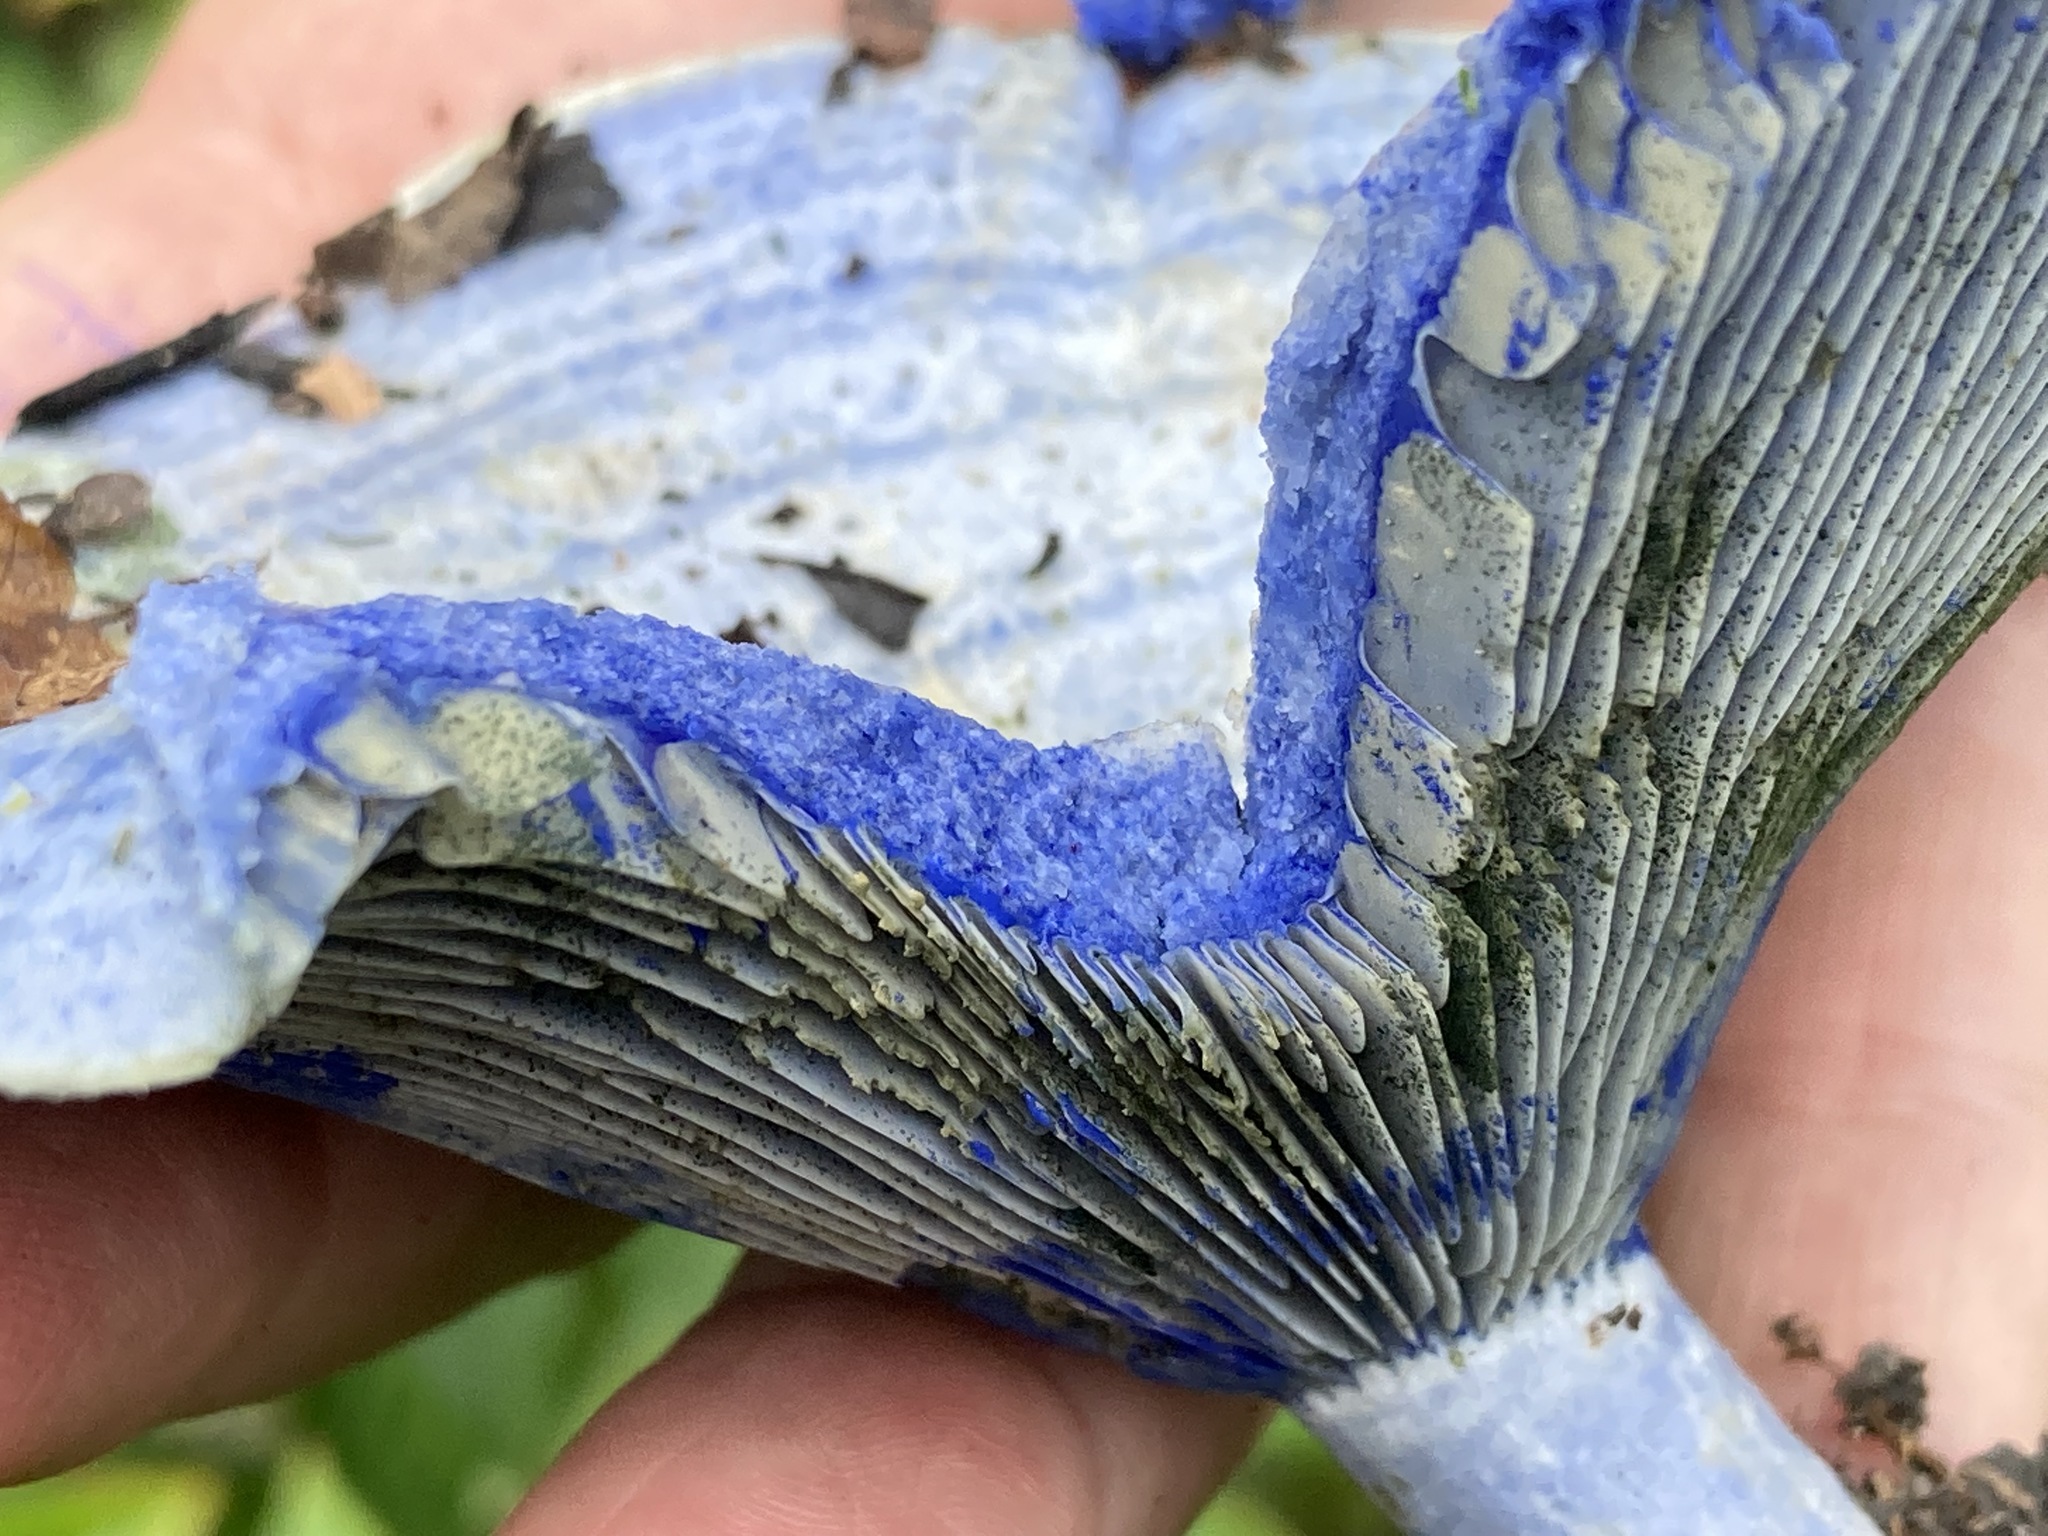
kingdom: Fungi
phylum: Basidiomycota
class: Agaricomycetes
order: Russulales
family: Russulaceae
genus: Lactarius
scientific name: Lactarius indigo
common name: Indigo milk cap
